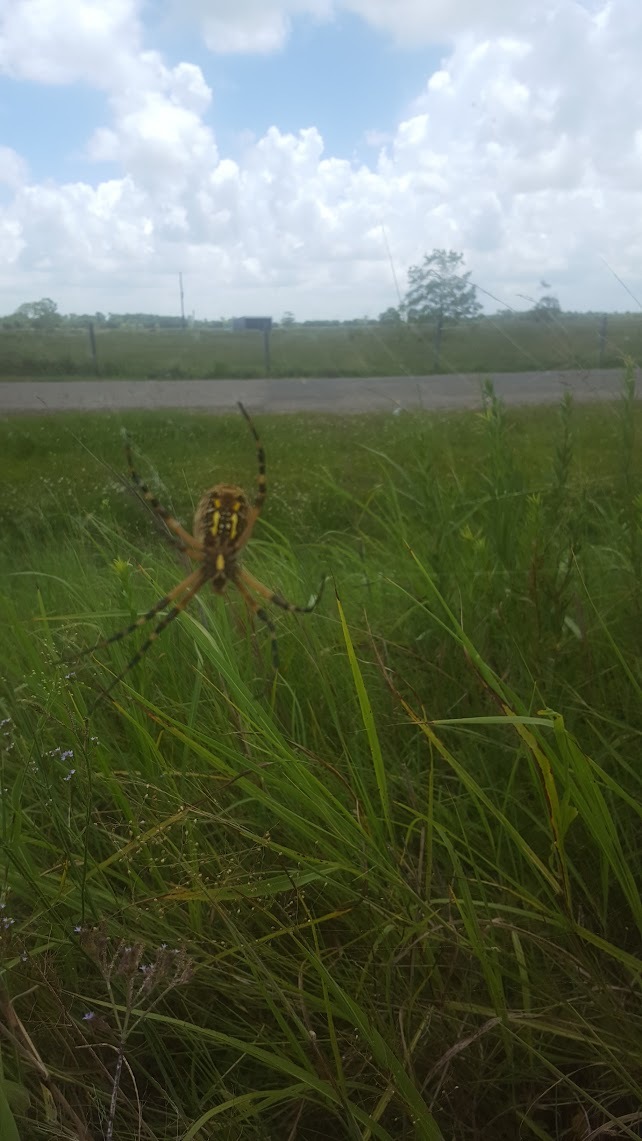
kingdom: Animalia
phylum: Arthropoda
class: Arachnida
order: Araneae
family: Araneidae
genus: Argiope
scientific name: Argiope aurantia
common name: Orb weavers
